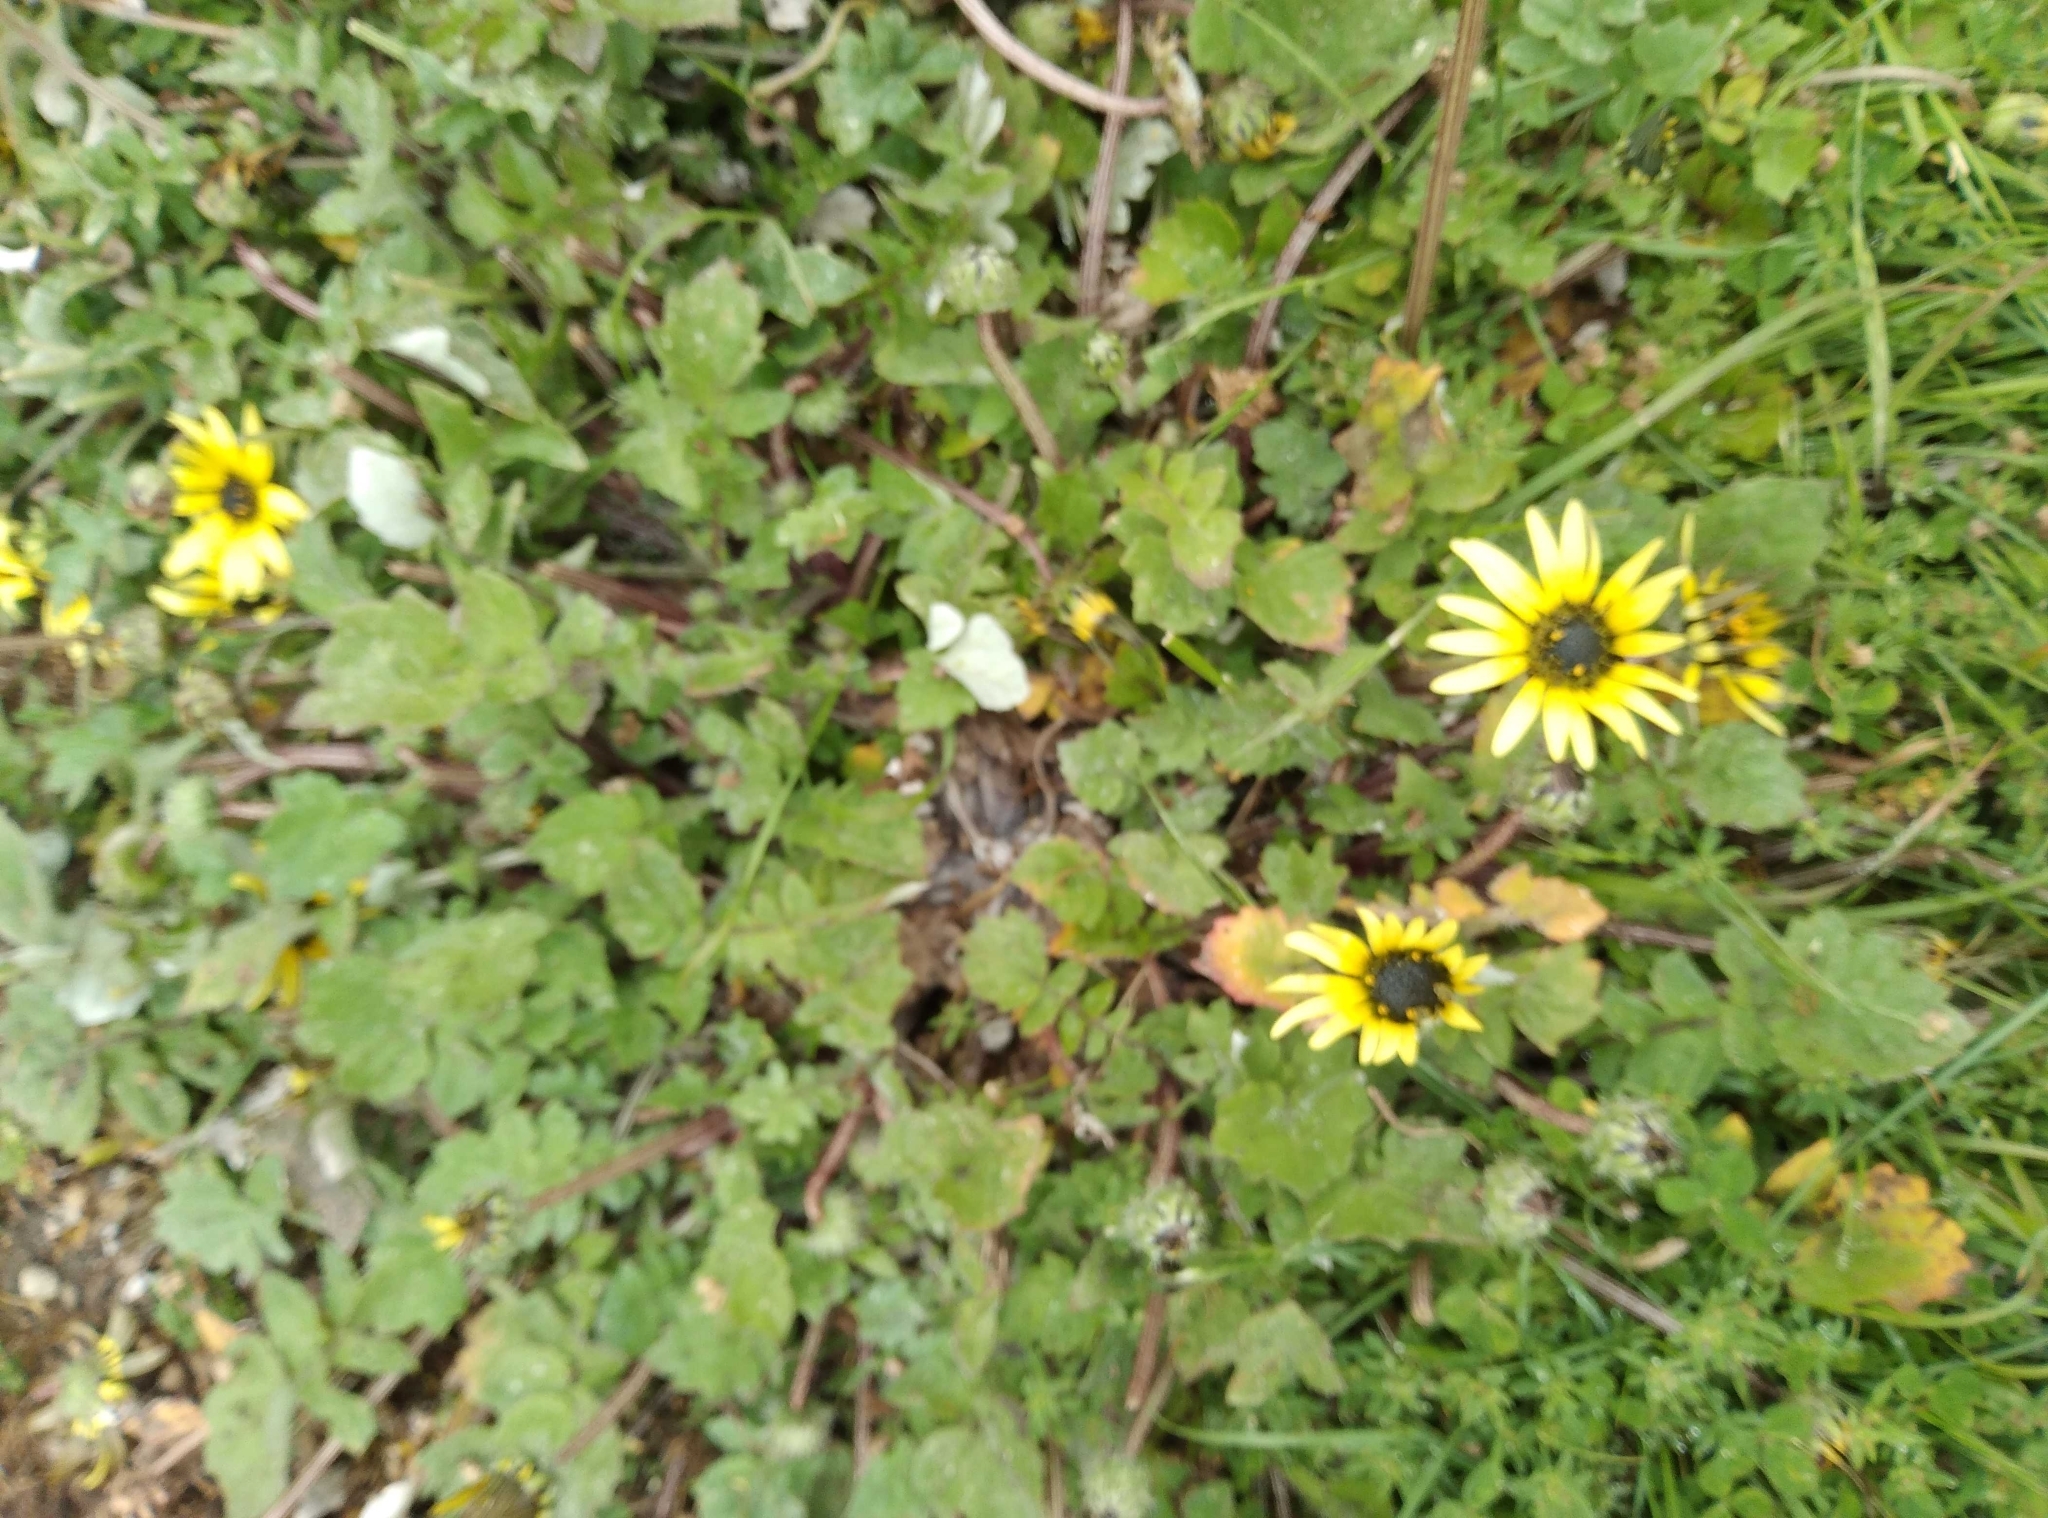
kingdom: Plantae
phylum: Tracheophyta
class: Magnoliopsida
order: Asterales
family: Asteraceae
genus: Arctotheca
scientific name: Arctotheca calendula
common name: Capeweed
